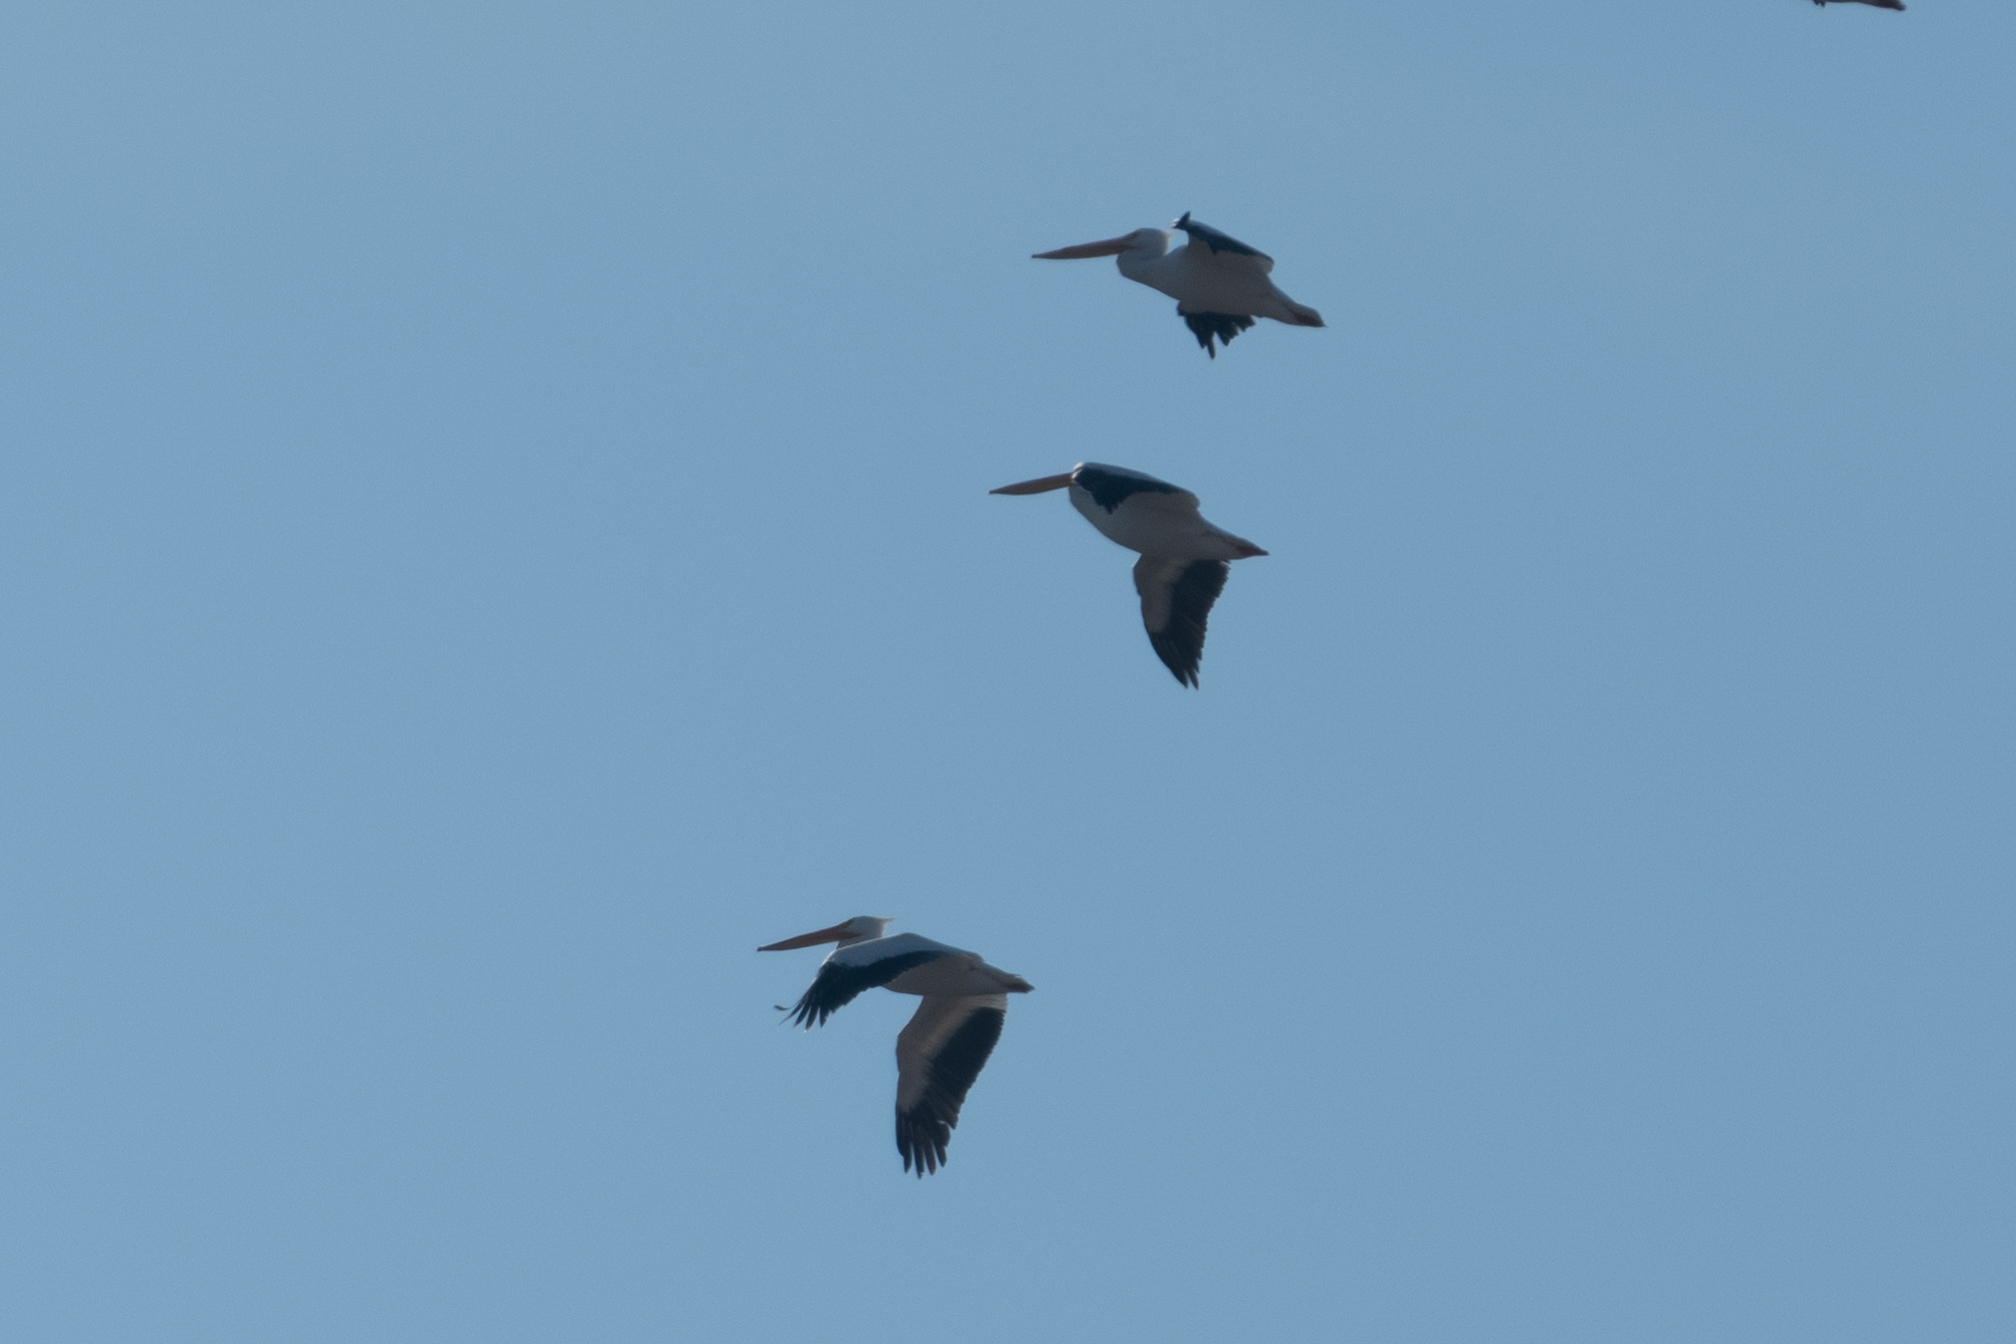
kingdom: Animalia
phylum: Chordata
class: Aves
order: Pelecaniformes
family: Pelecanidae
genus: Pelecanus
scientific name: Pelecanus erythrorhynchos
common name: American white pelican
